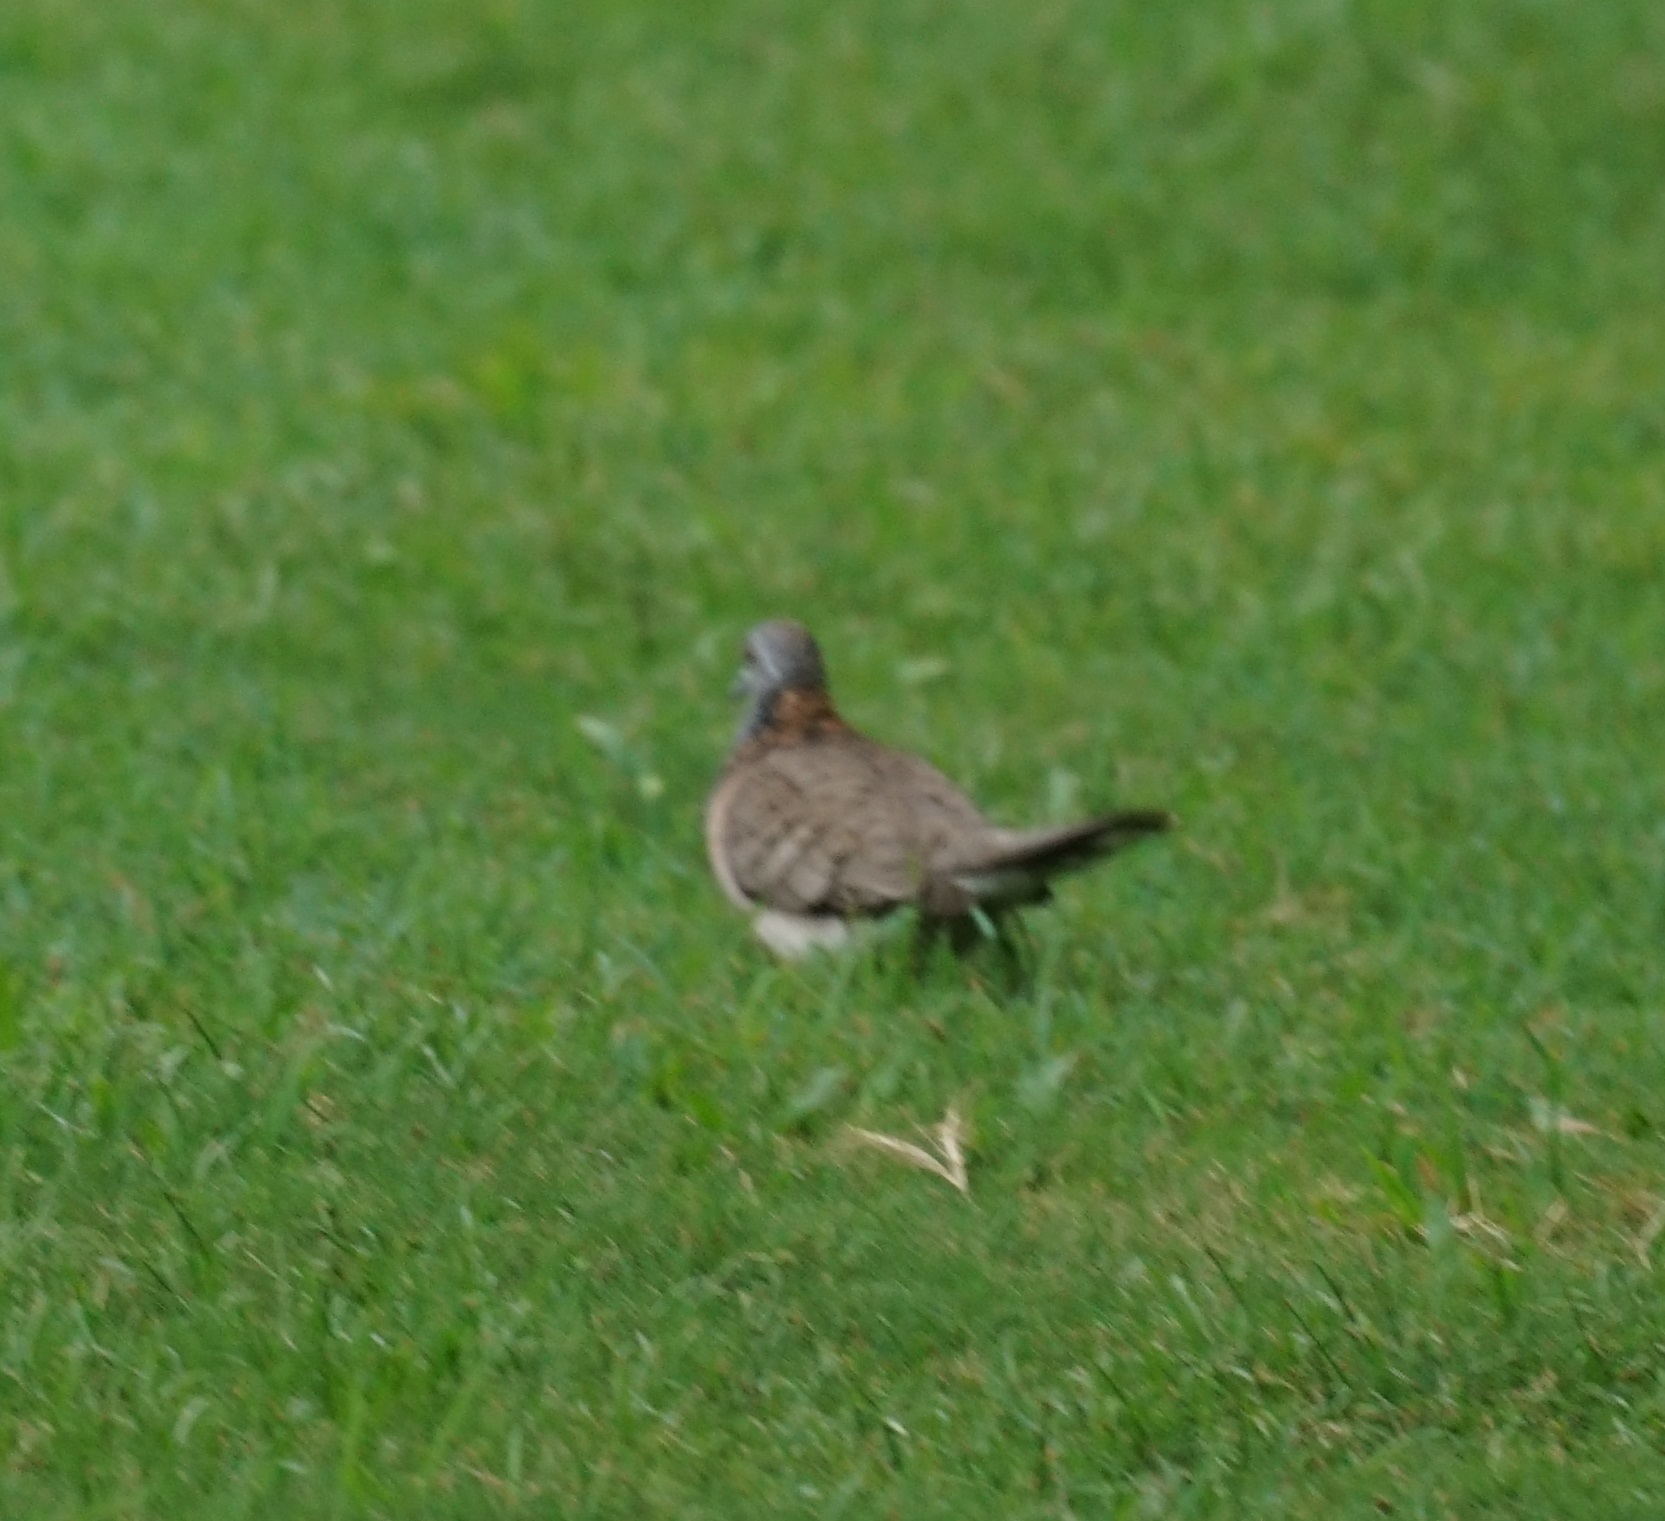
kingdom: Animalia
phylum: Chordata
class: Aves
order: Columbiformes
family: Columbidae
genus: Geopelia
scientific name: Geopelia humeralis
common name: Bar-shouldered dove
